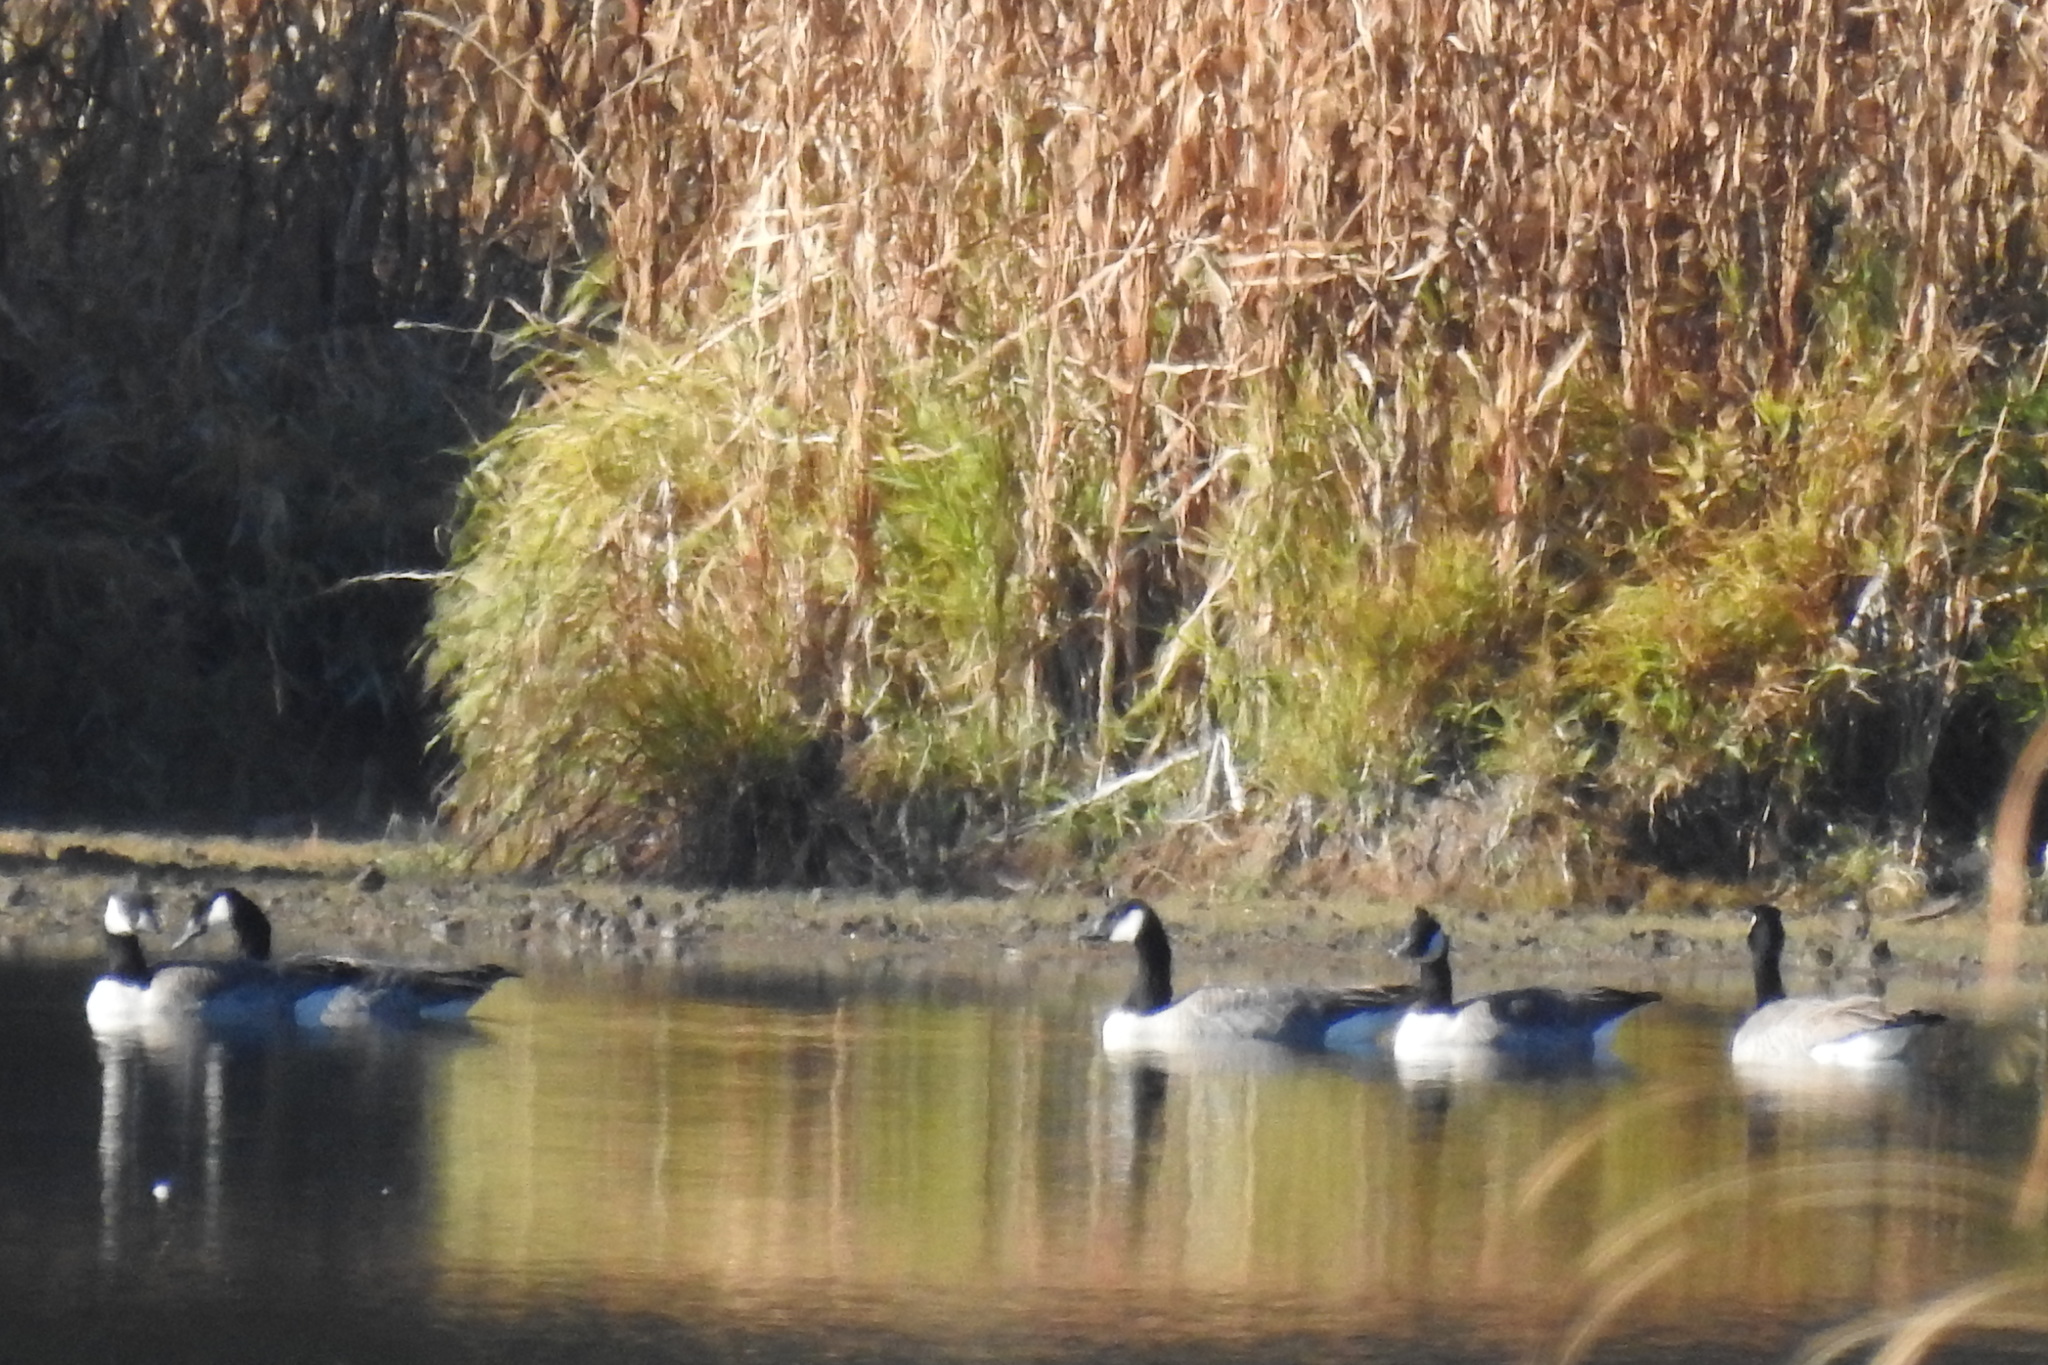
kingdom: Animalia
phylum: Chordata
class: Aves
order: Anseriformes
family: Anatidae
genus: Branta
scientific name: Branta canadensis
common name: Canada goose
